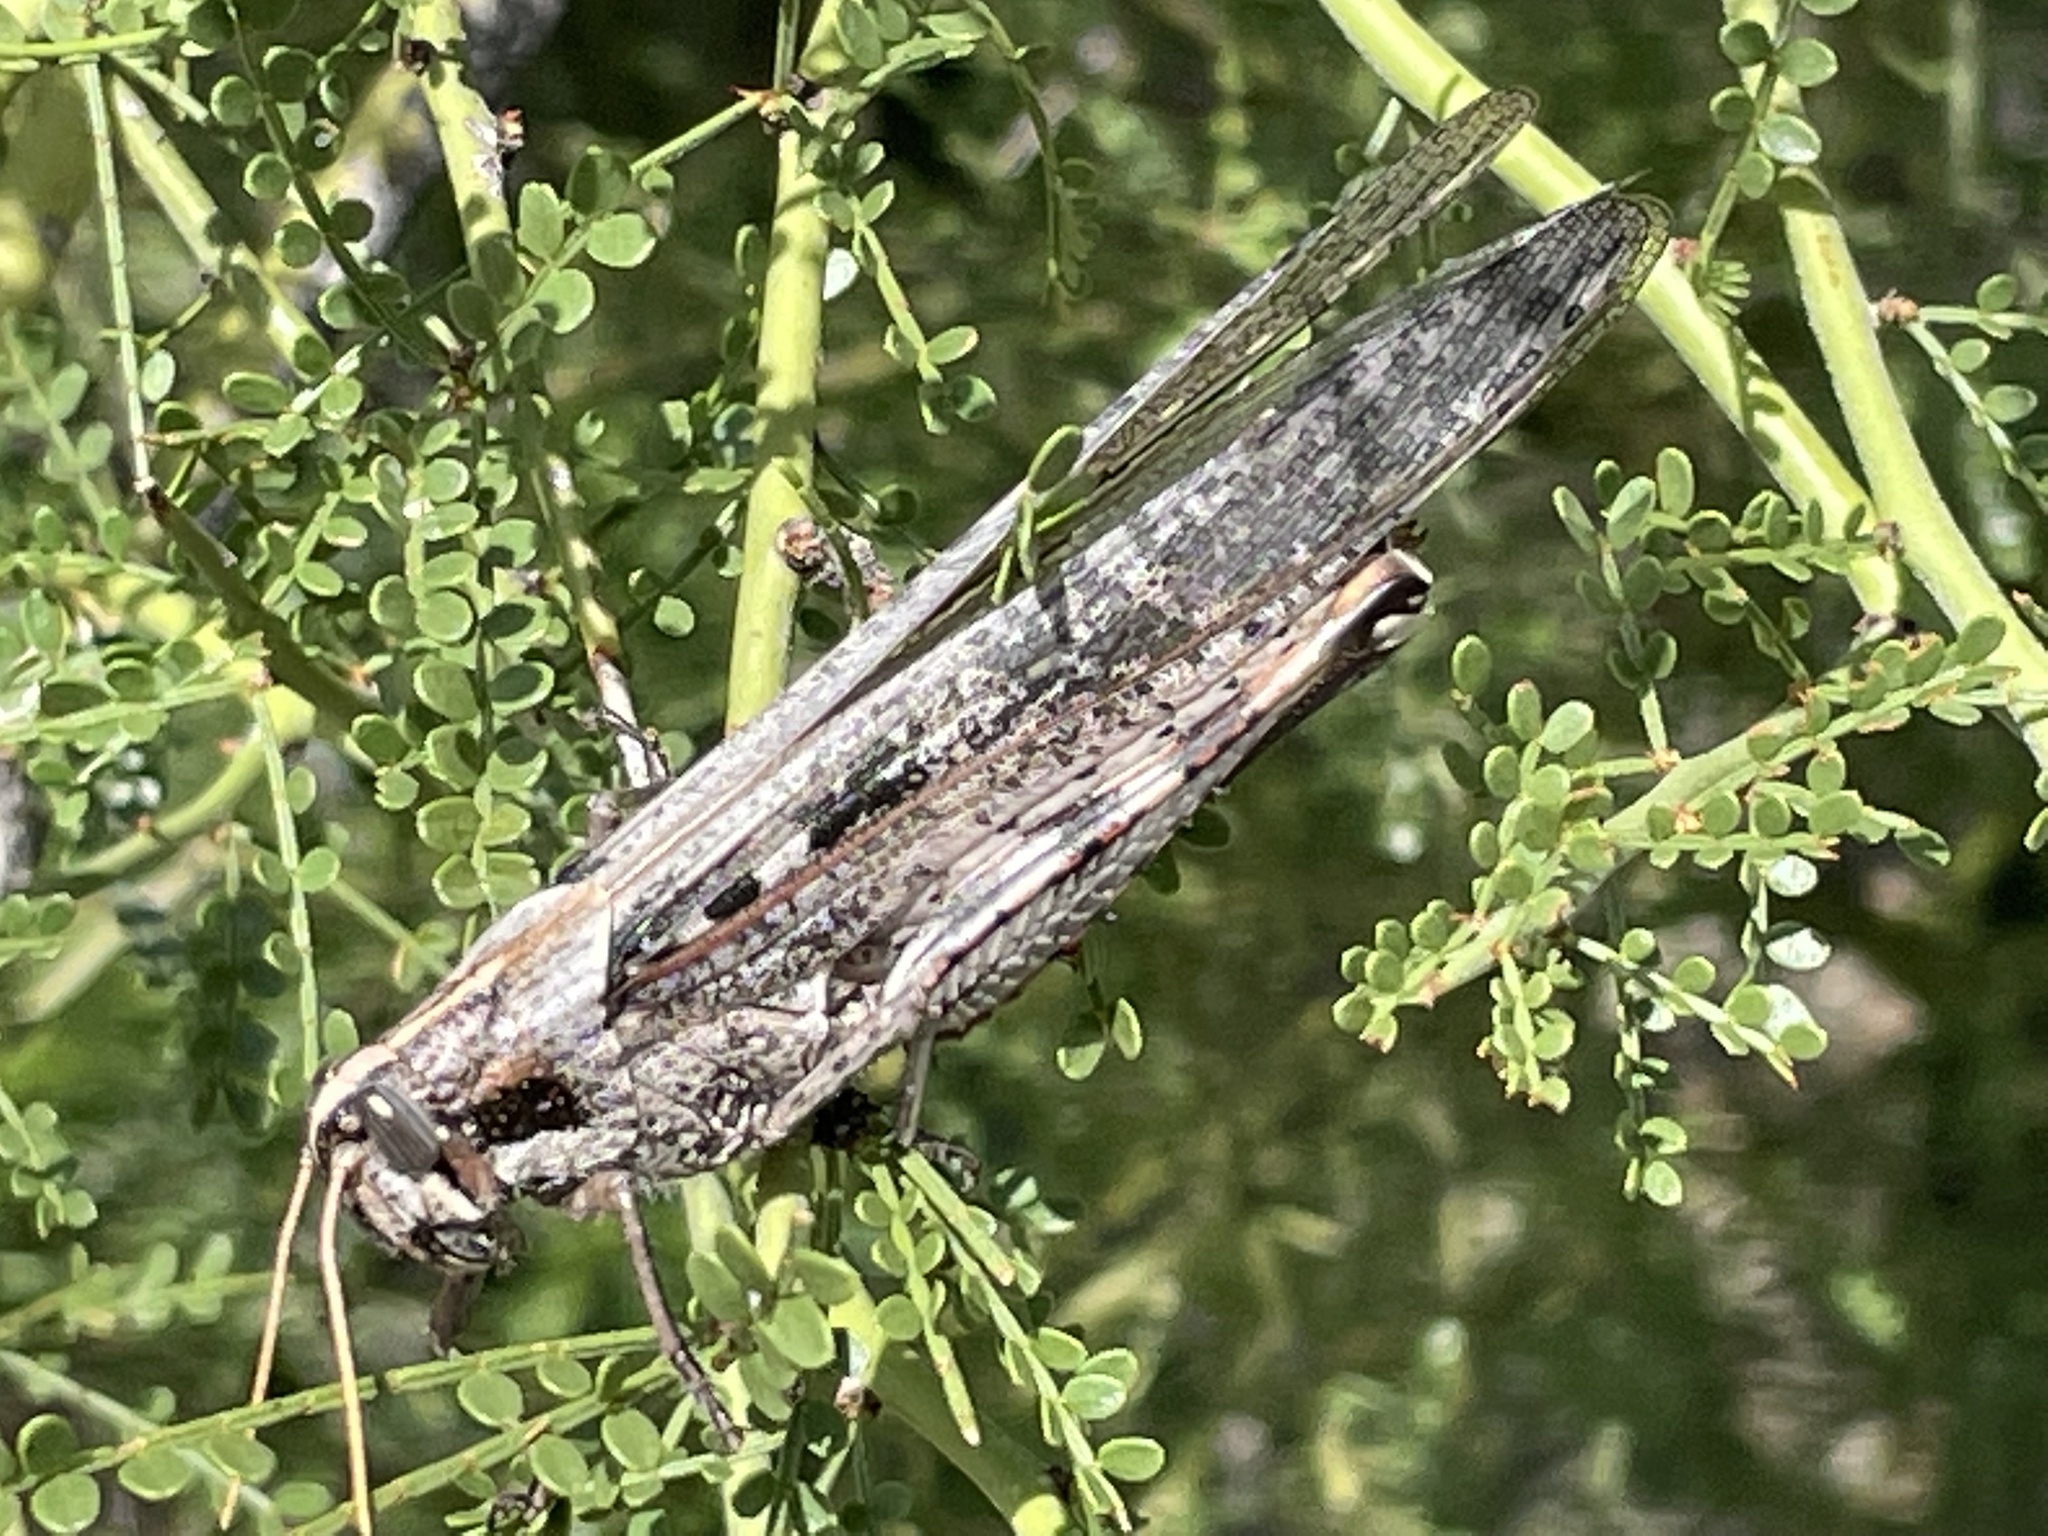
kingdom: Animalia
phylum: Arthropoda
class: Insecta
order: Orthoptera
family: Acrididae
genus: Schistocerca
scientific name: Schistocerca nitens
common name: Vagrant grasshopper
